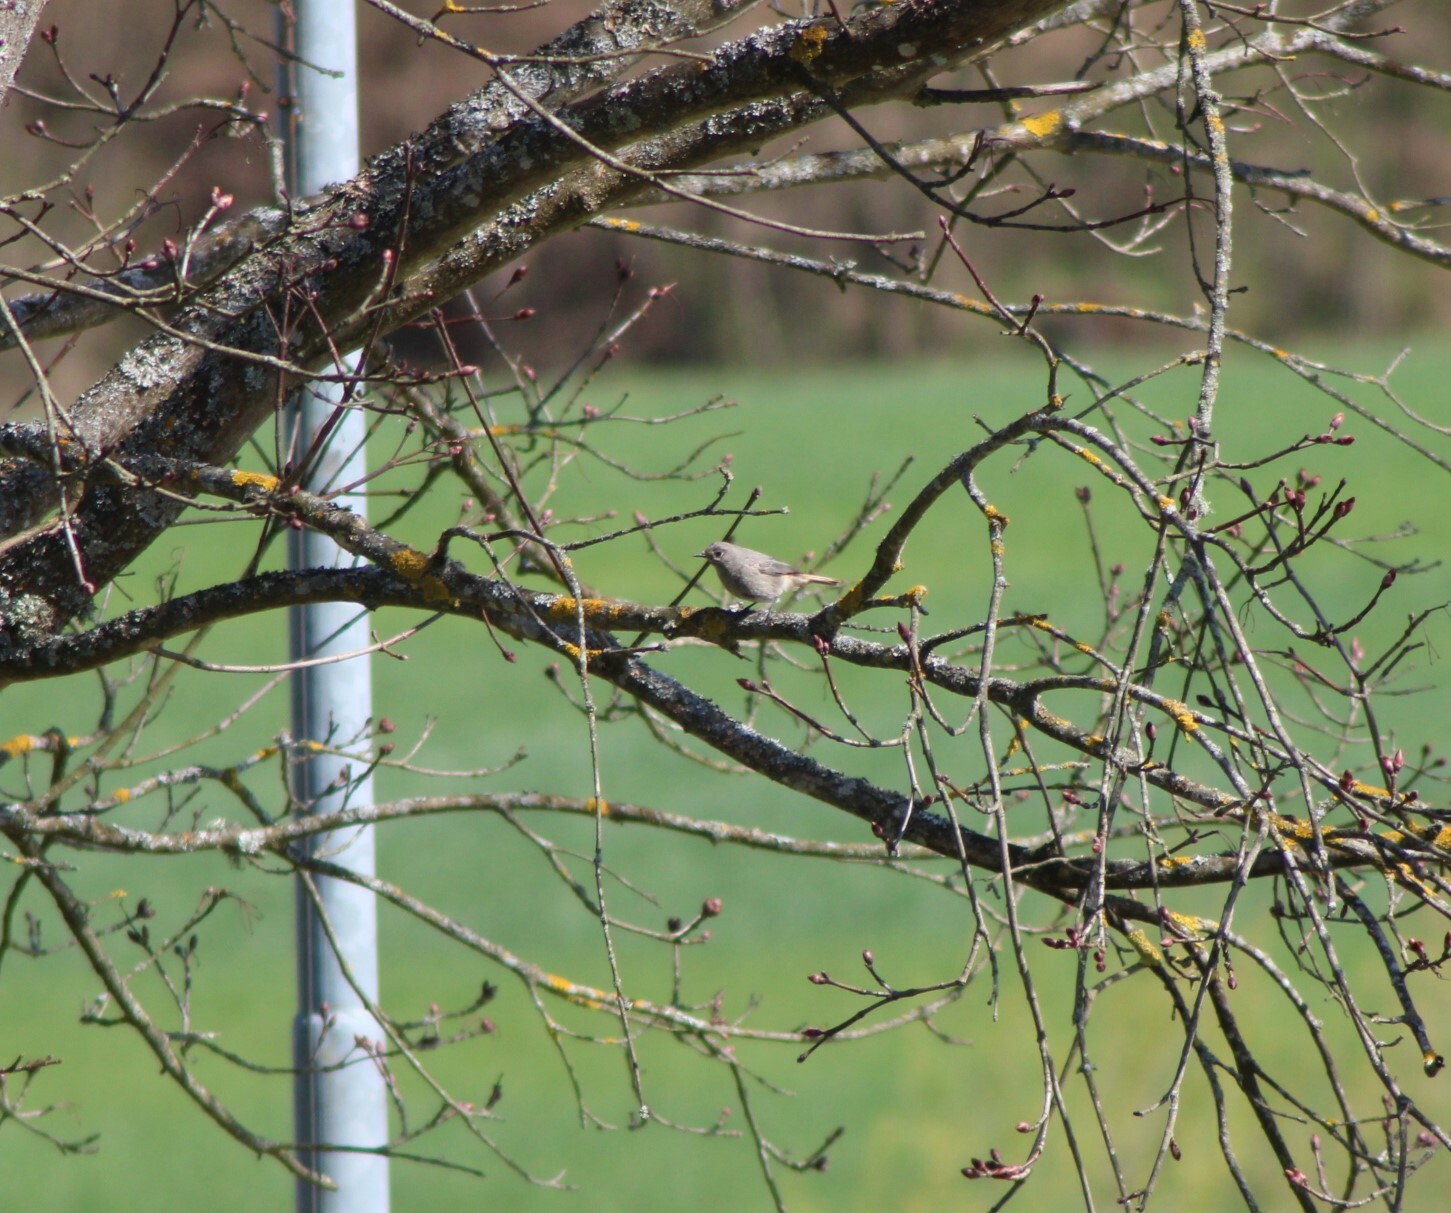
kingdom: Animalia
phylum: Chordata
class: Aves
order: Passeriformes
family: Muscicapidae
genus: Phoenicurus
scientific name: Phoenicurus ochruros
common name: Black redstart
